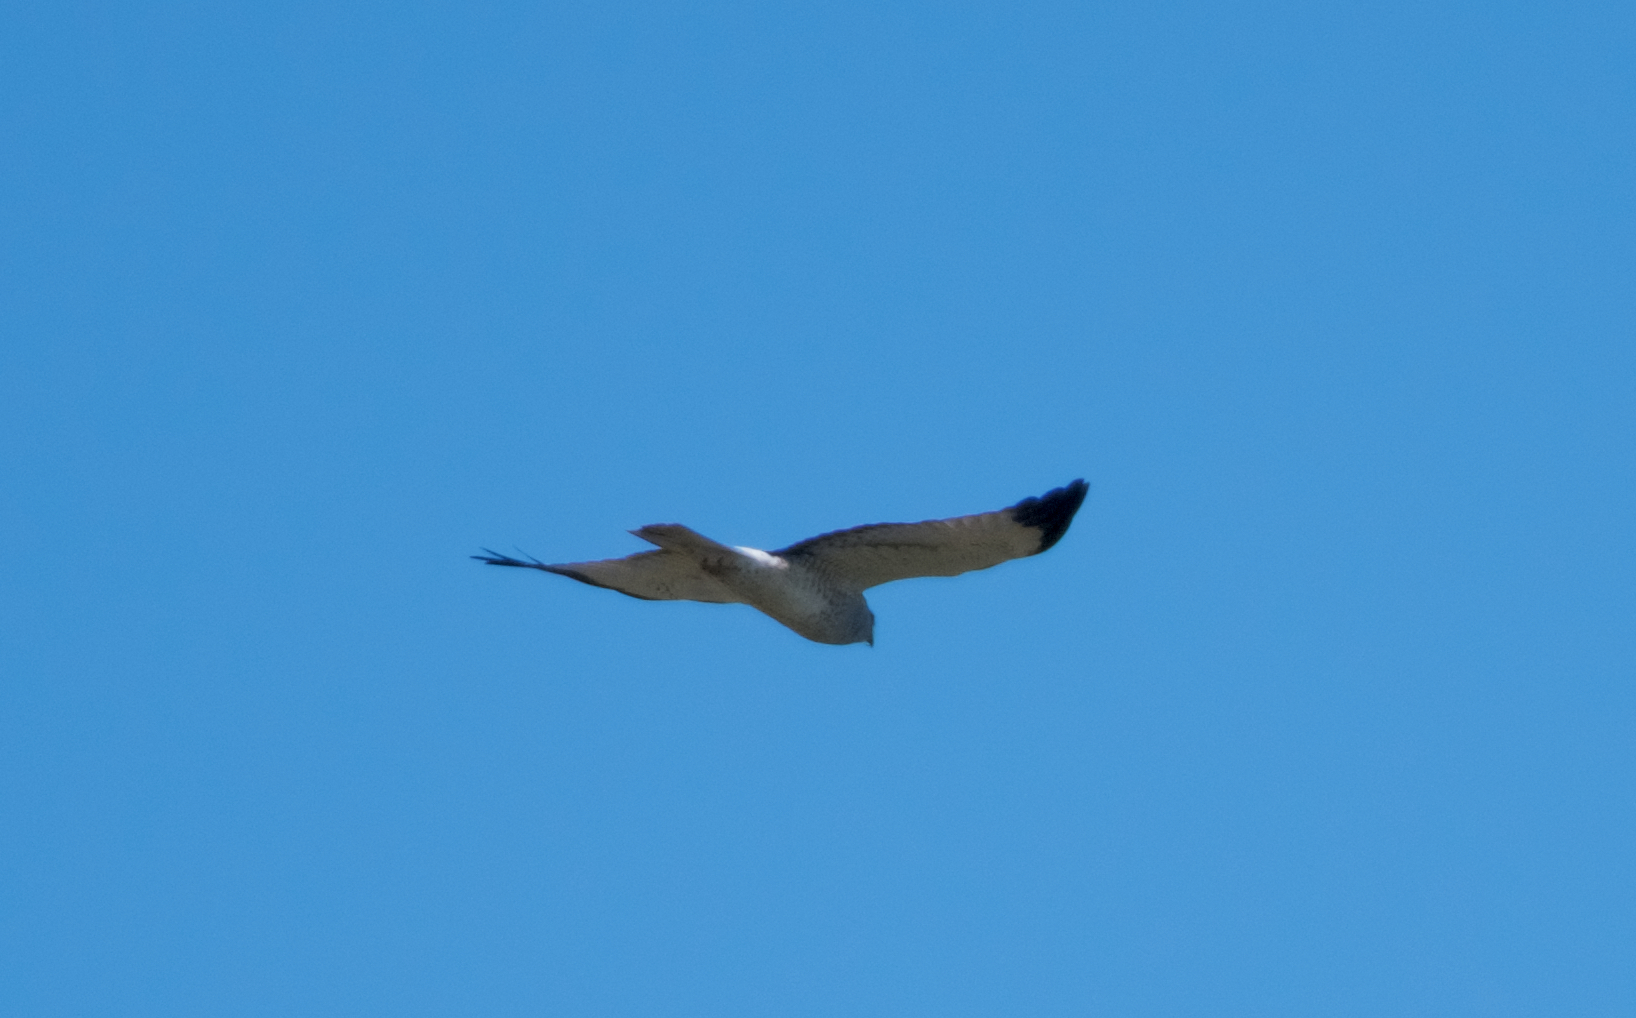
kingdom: Animalia
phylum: Chordata
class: Aves
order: Accipitriformes
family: Accipitridae
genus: Circus
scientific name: Circus cyaneus
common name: Hen harrier
